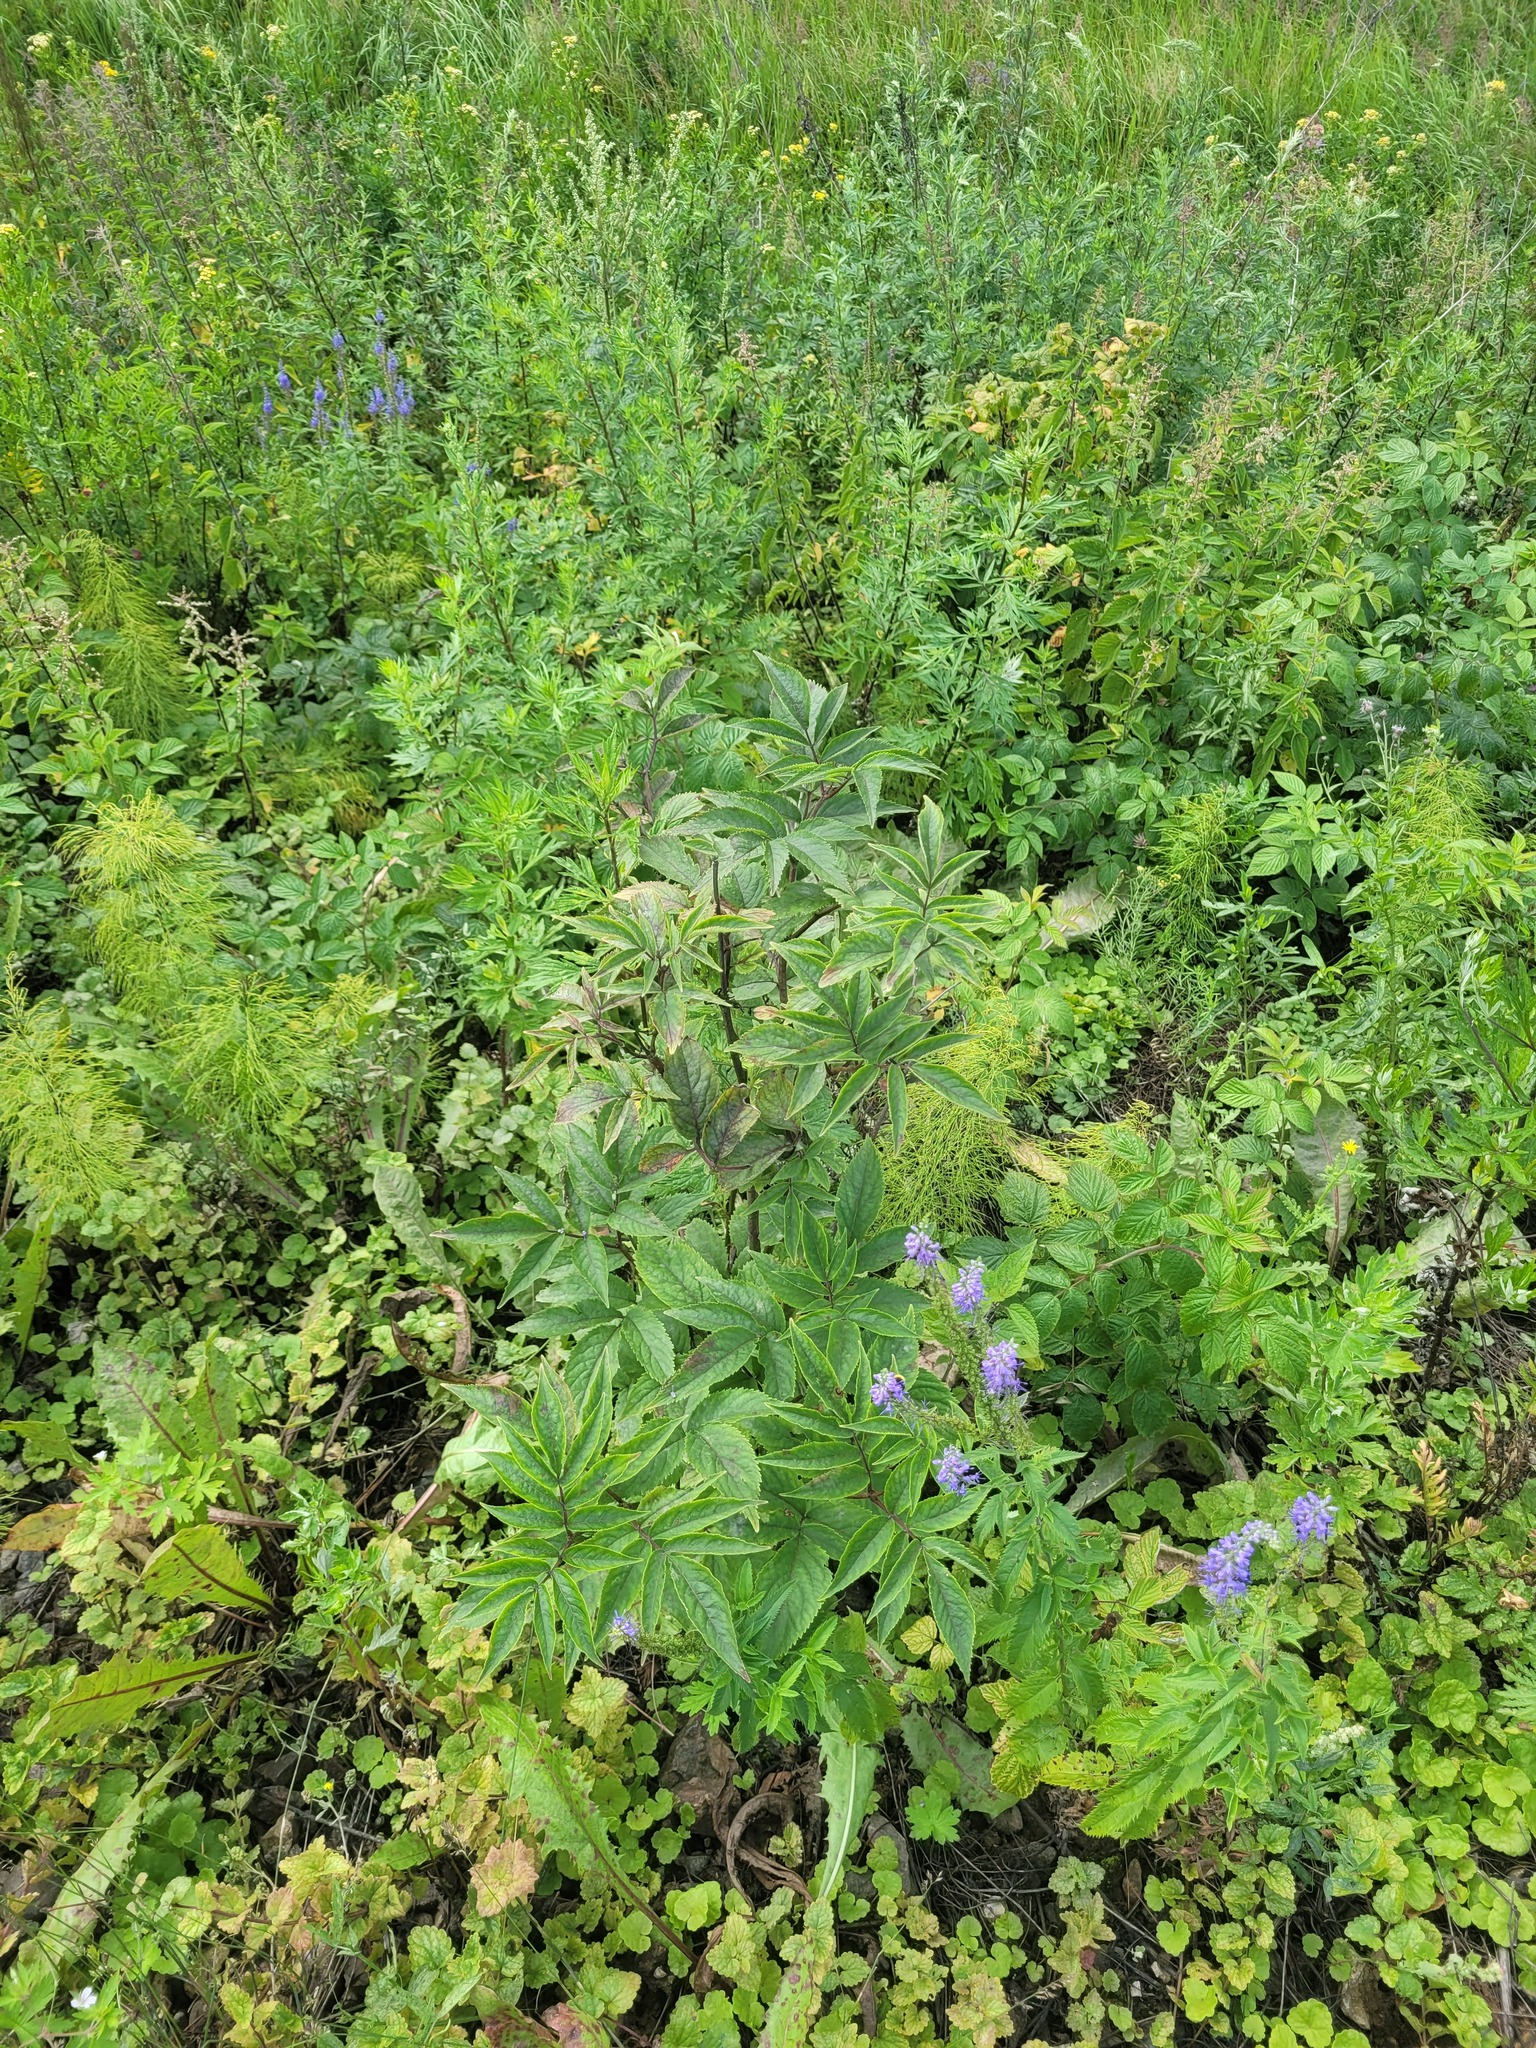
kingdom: Plantae
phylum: Tracheophyta
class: Magnoliopsida
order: Dipsacales
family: Viburnaceae
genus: Sambucus
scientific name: Sambucus racemosa
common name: Red-berried elder
